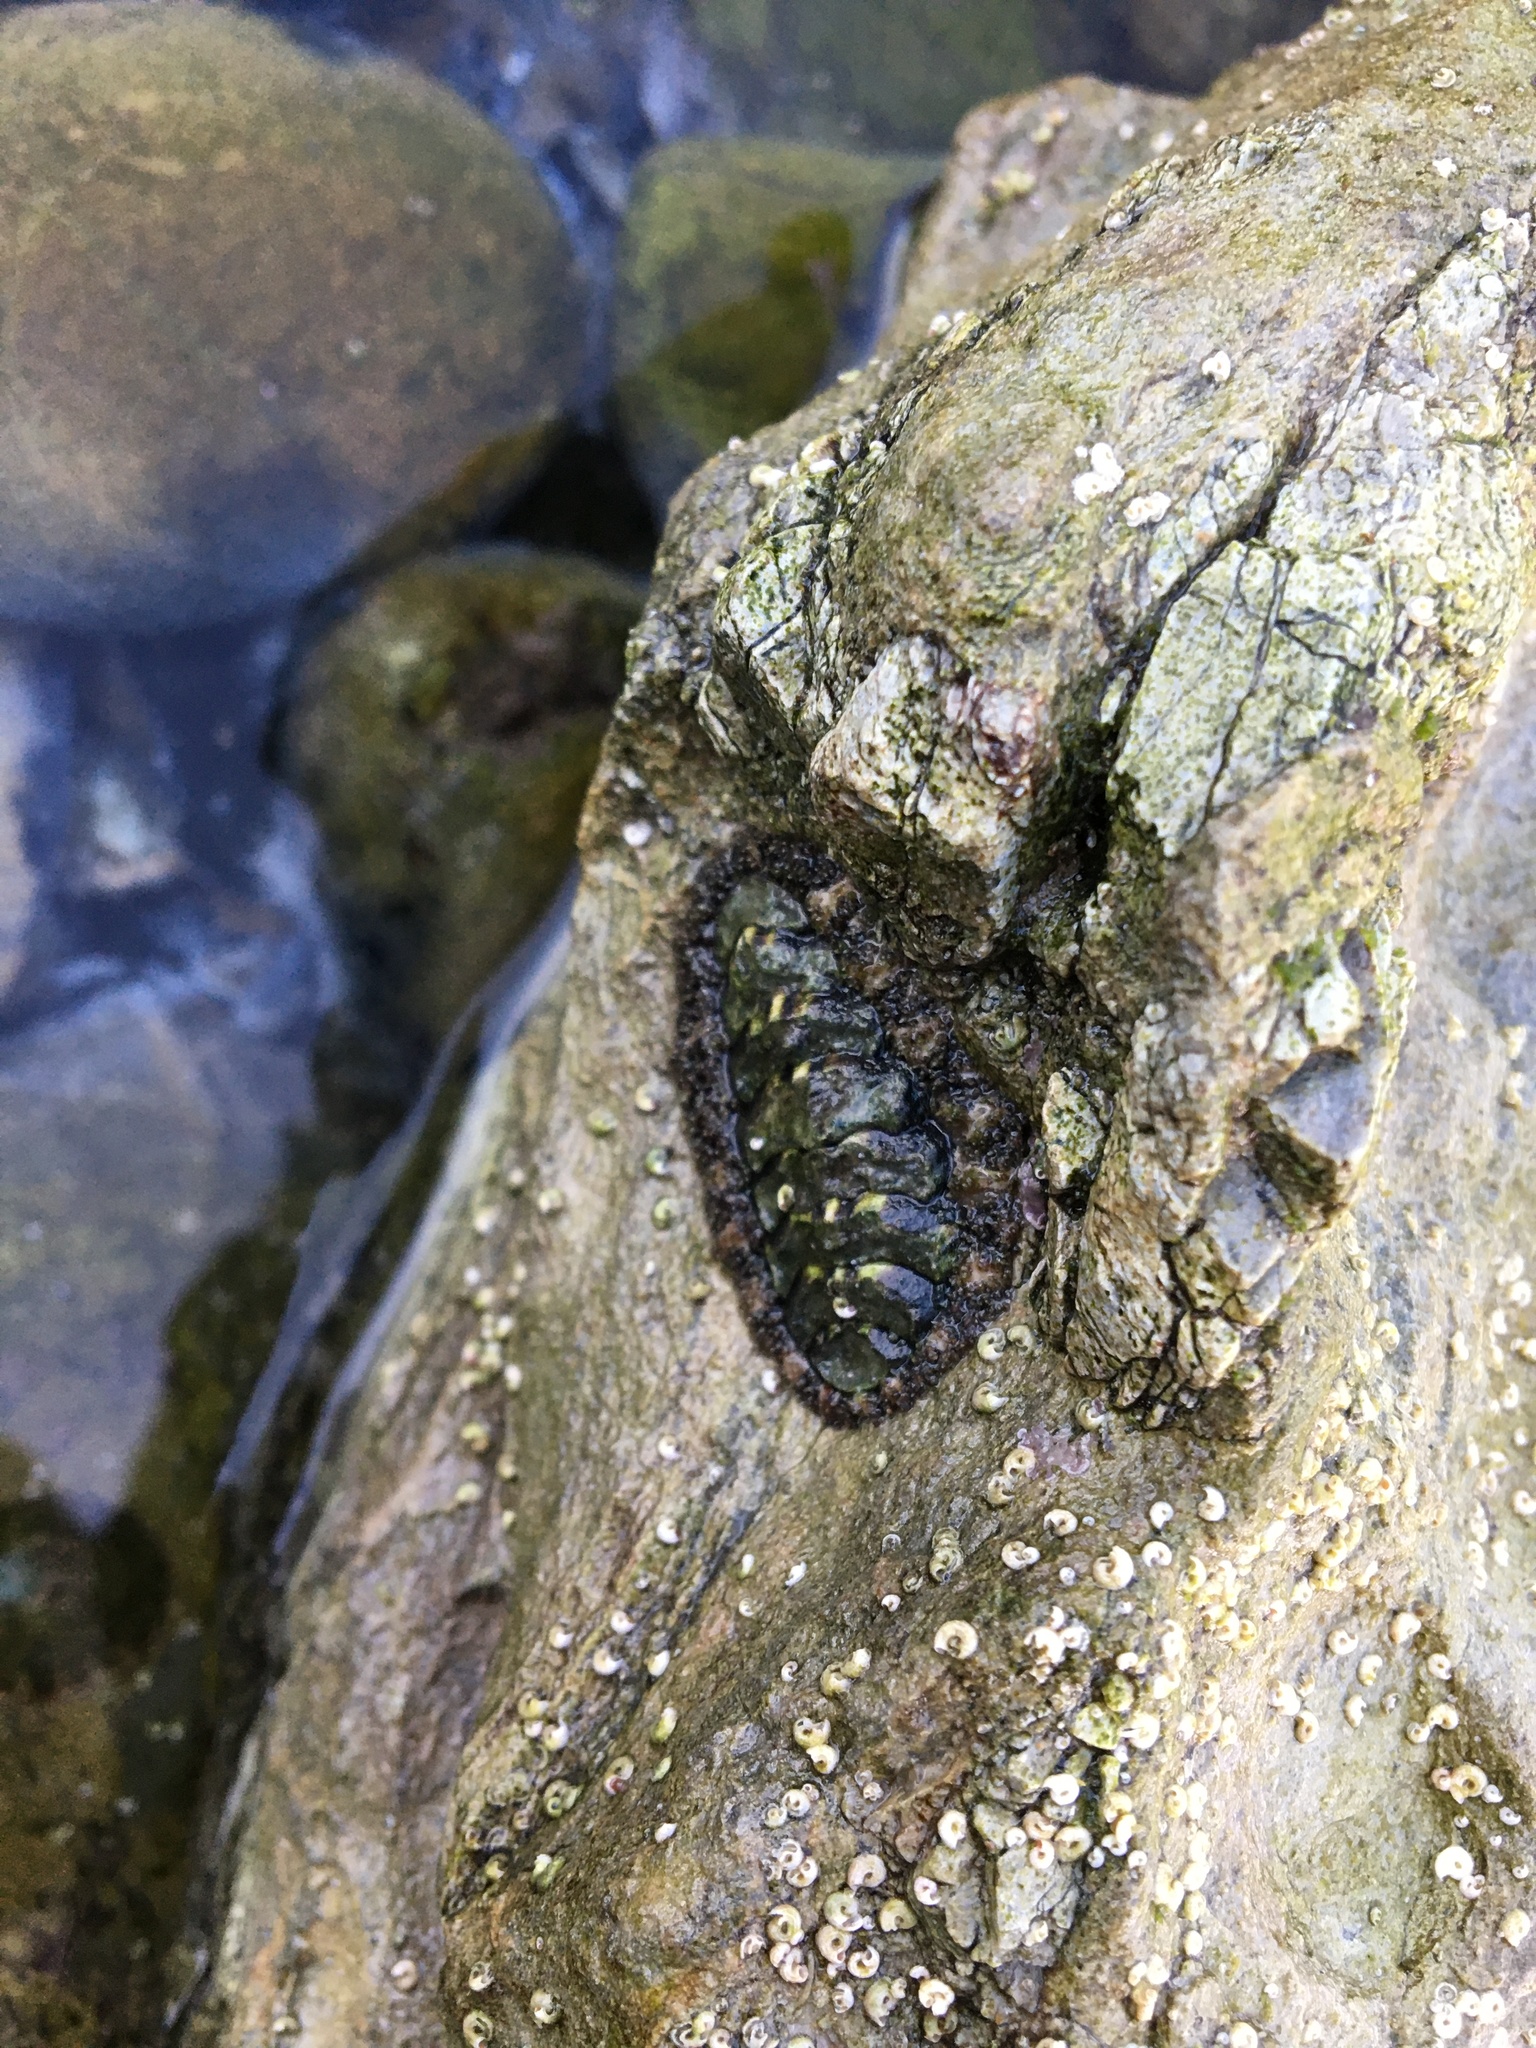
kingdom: Animalia
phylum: Mollusca
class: Polyplacophora
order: Chitonida
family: Tonicellidae
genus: Nuttallina
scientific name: Nuttallina californica
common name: California nuttall chiton
